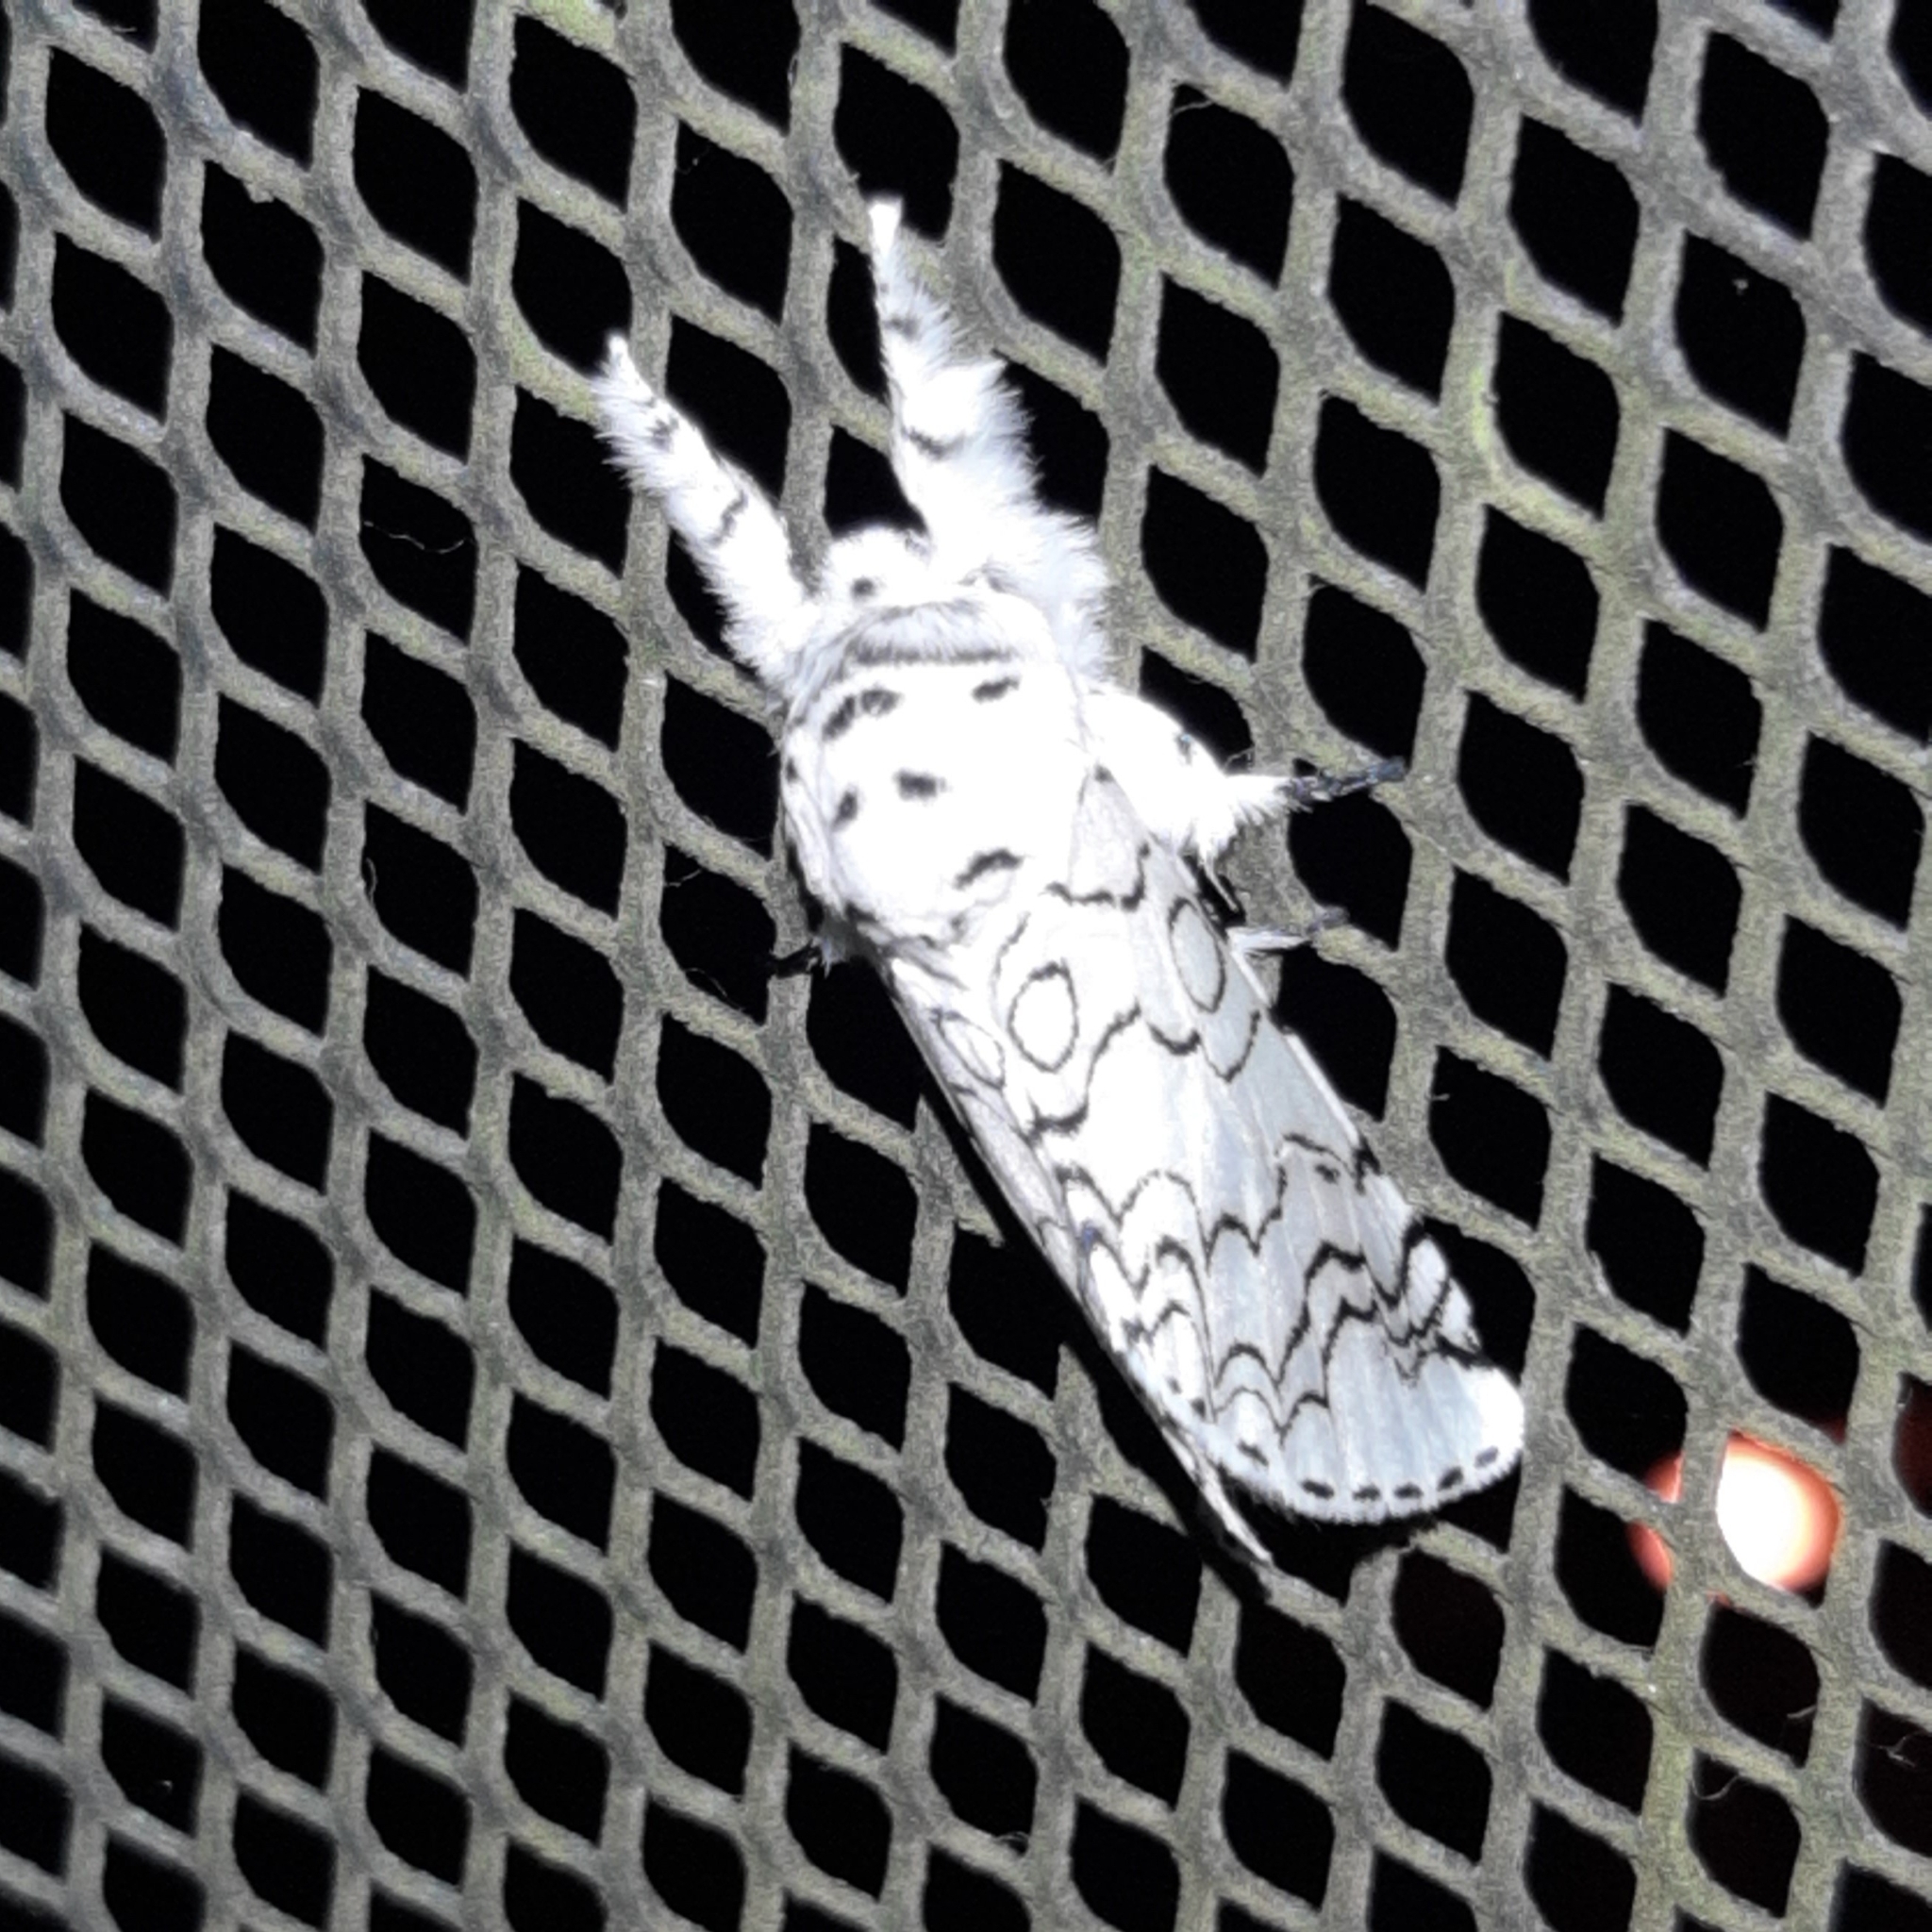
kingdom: Animalia
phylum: Arthropoda
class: Insecta
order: Lepidoptera
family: Notodontidae
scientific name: Notodontidae
